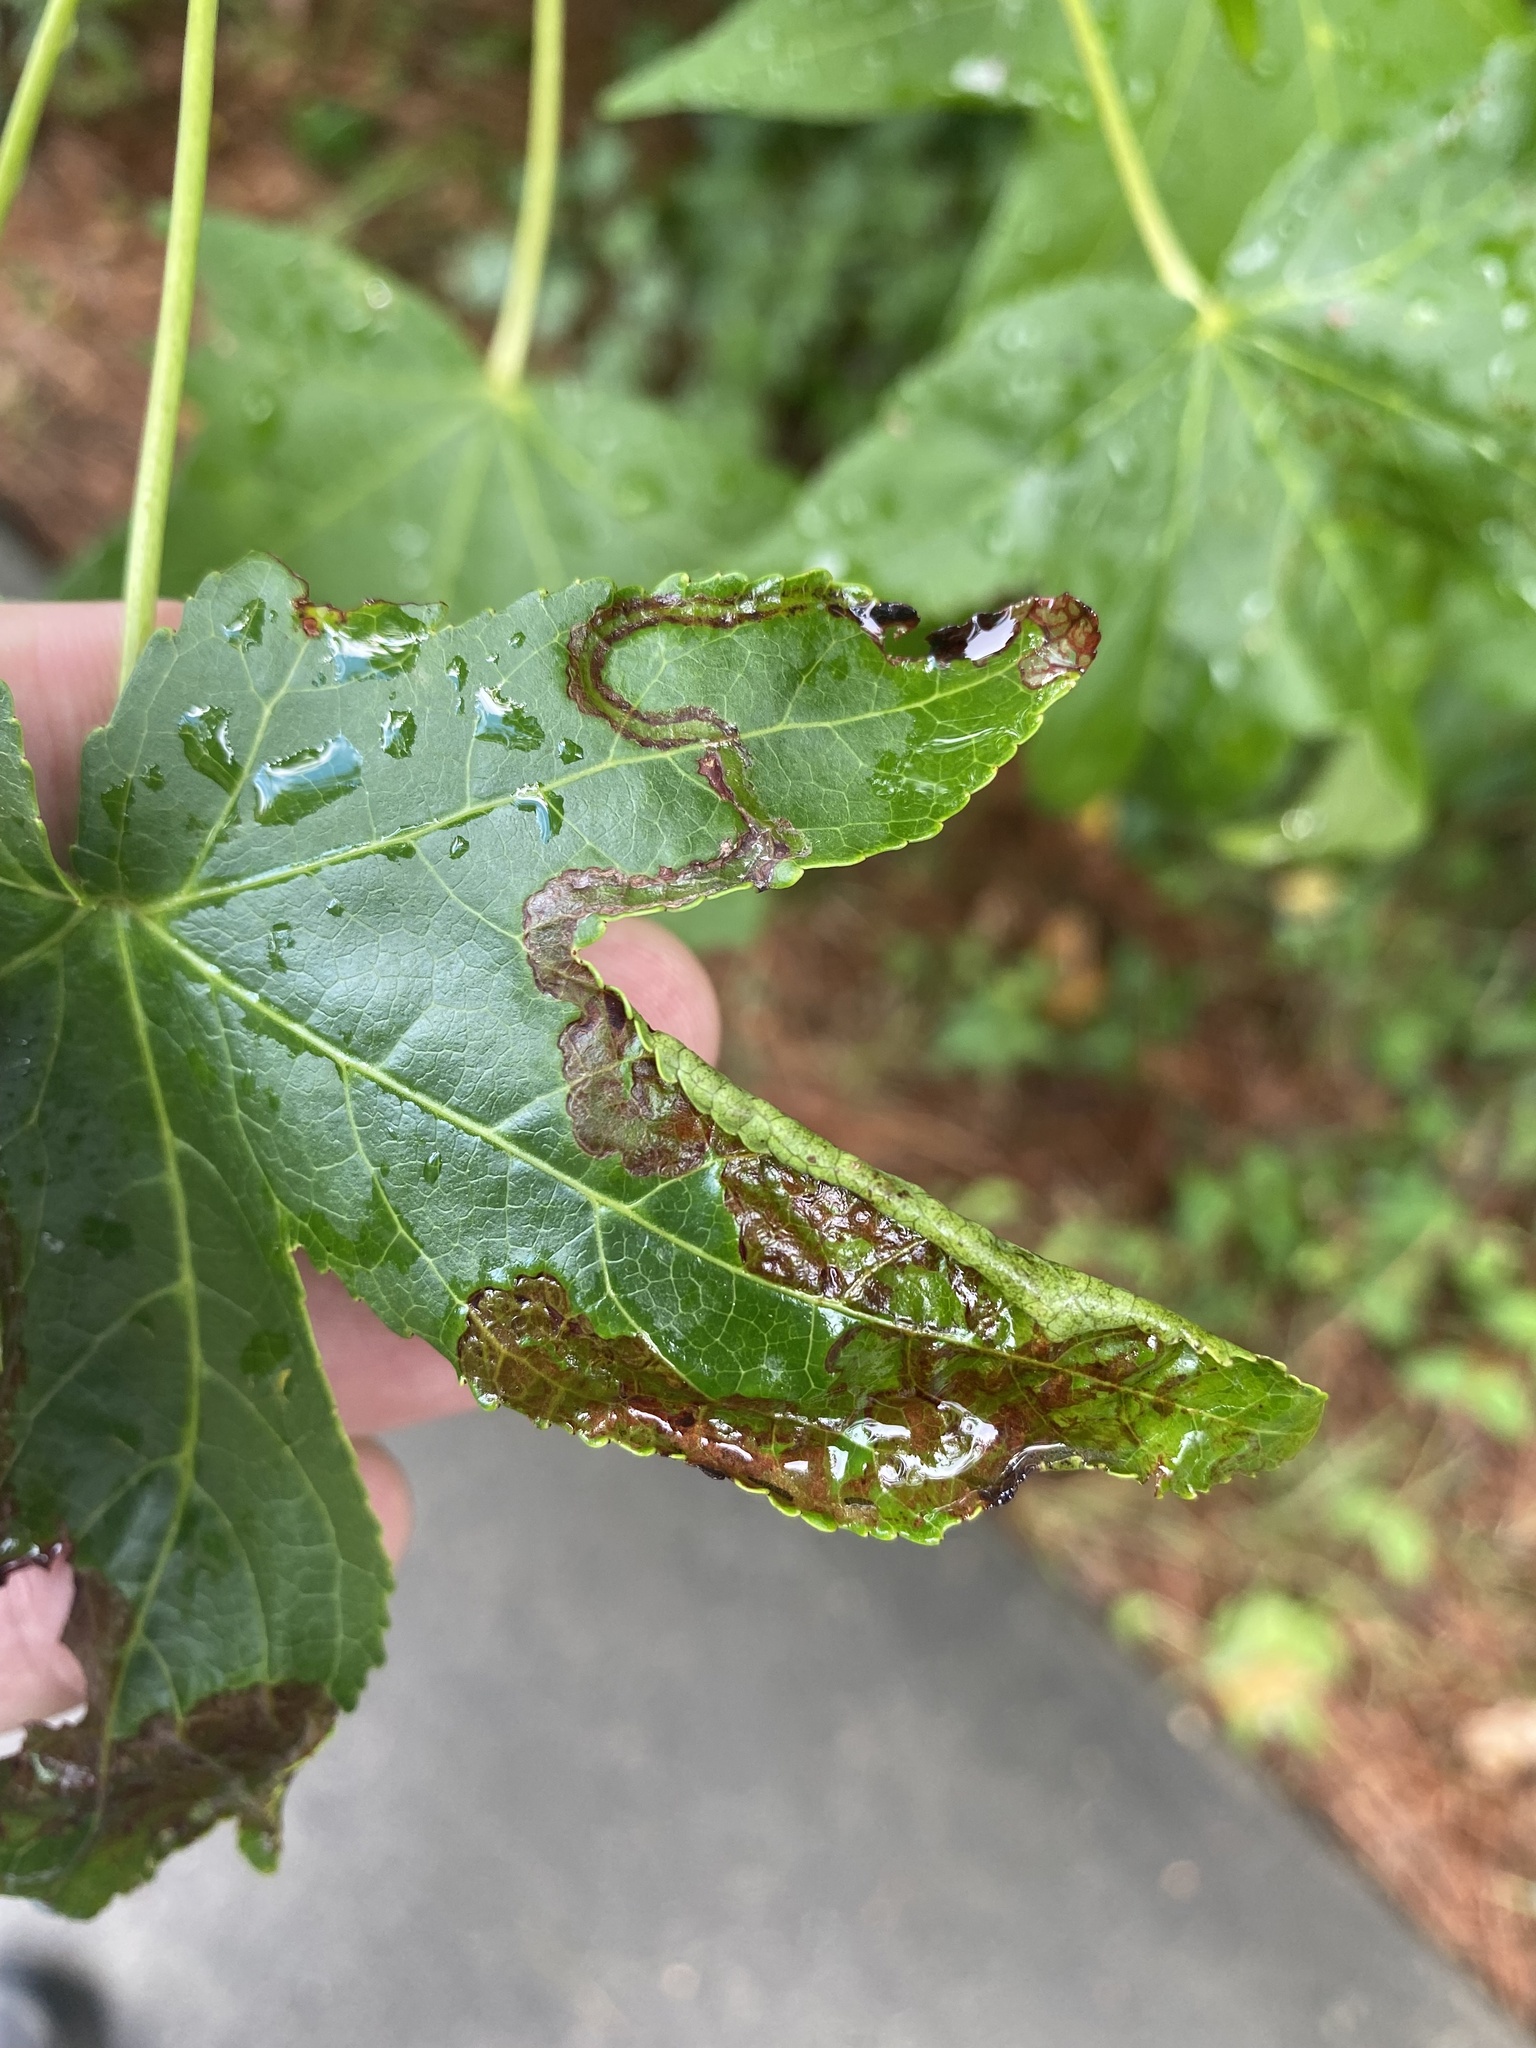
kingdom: Animalia
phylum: Arthropoda
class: Insecta
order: Lepidoptera
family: Gracillariidae
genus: Phyllocnistis
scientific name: Phyllocnistis liquidambarisella
